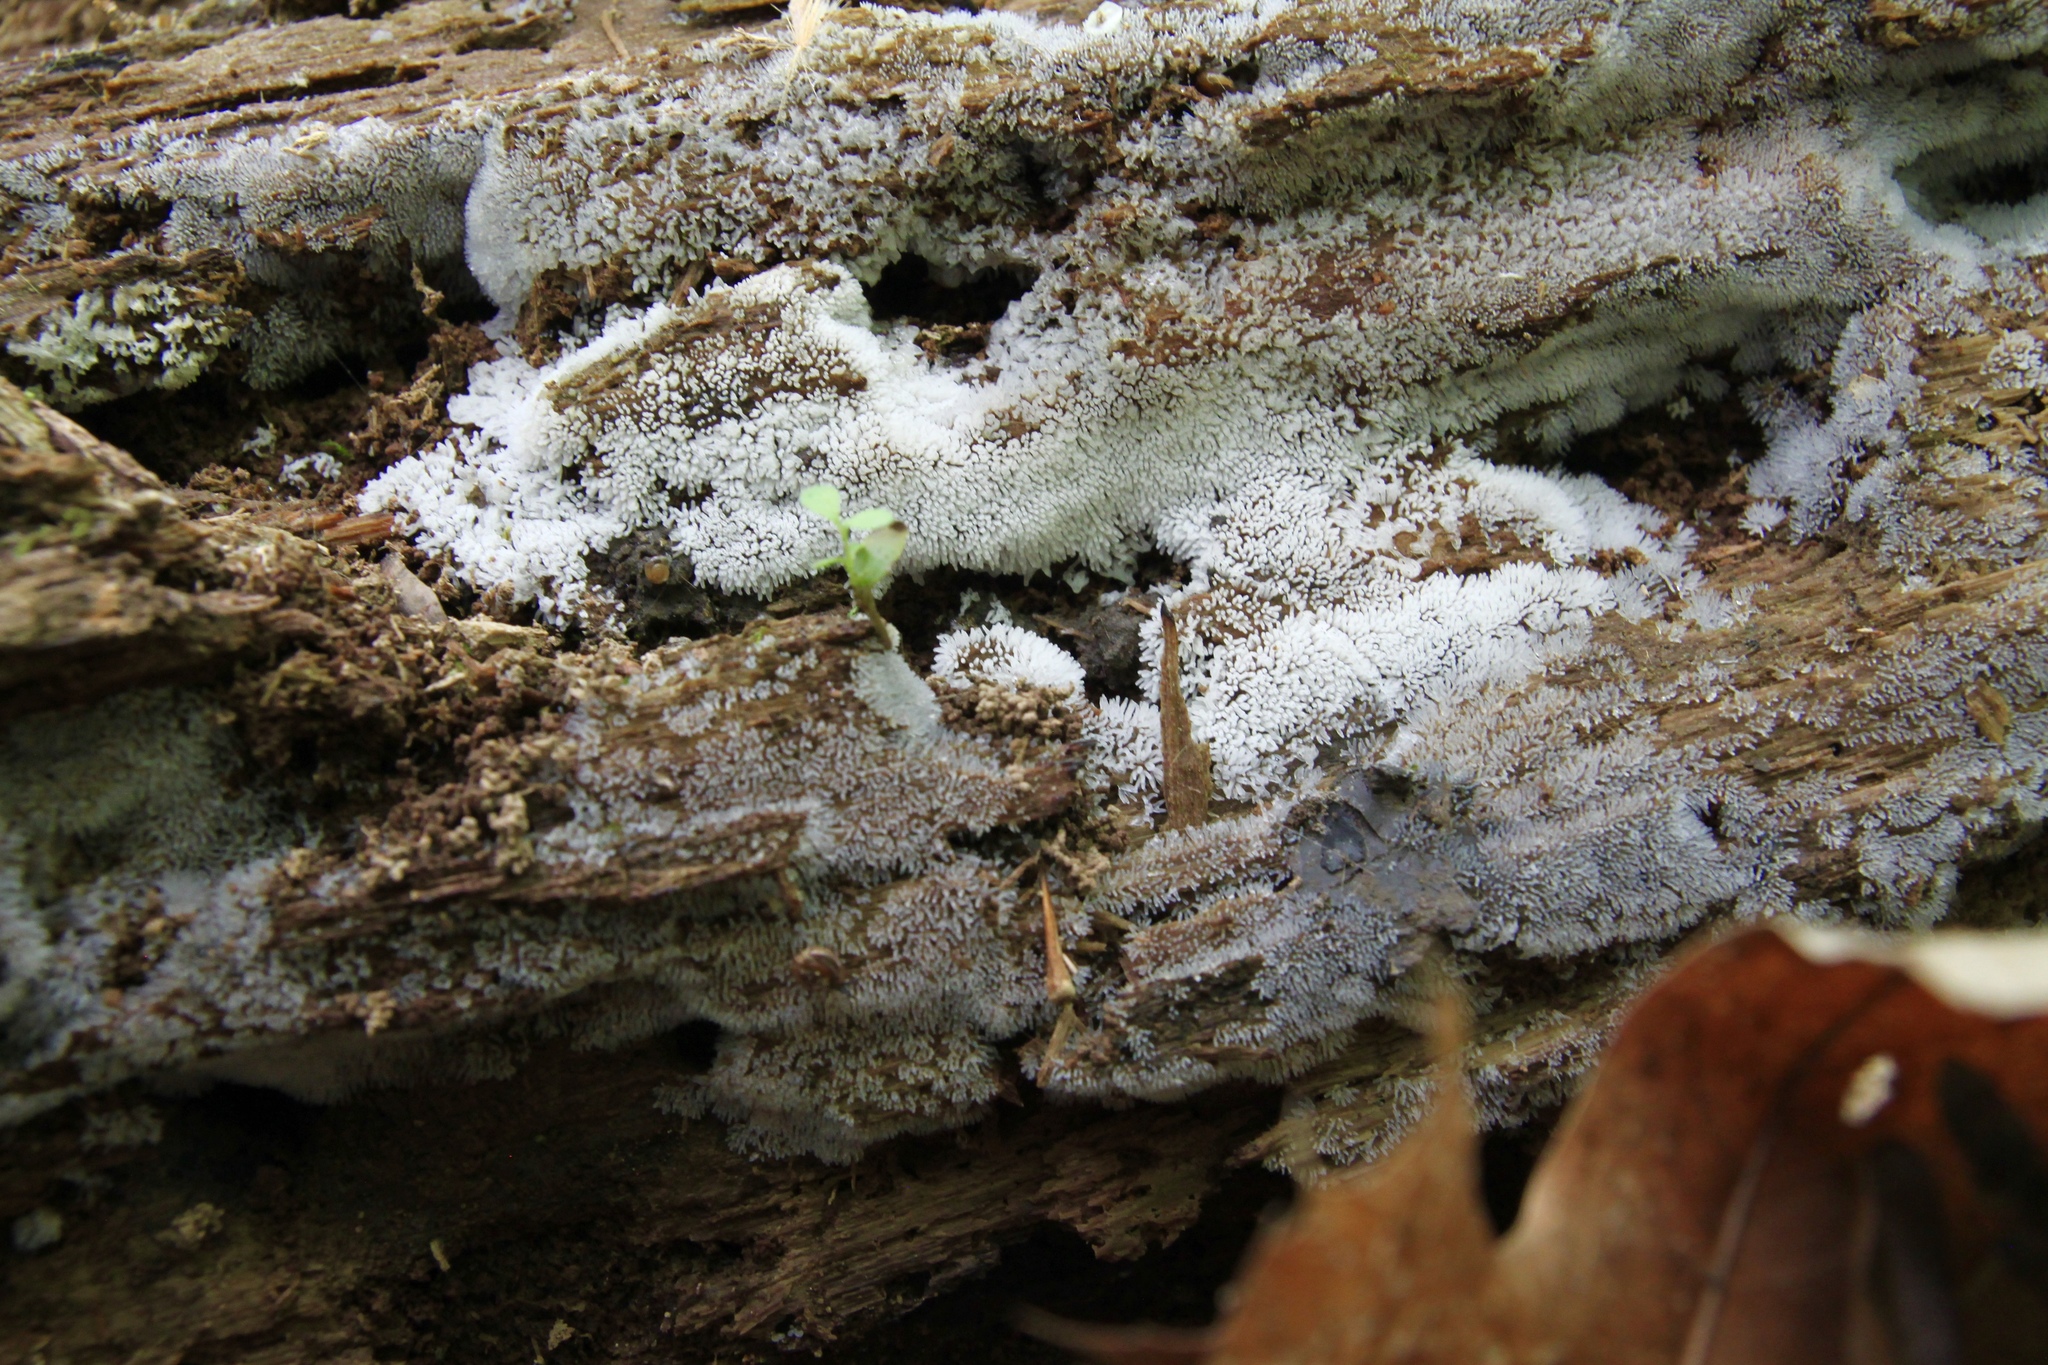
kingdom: Protozoa
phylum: Mycetozoa
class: Protosteliomycetes
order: Ceratiomyxales
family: Ceratiomyxaceae
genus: Ceratiomyxa
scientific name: Ceratiomyxa fruticulosa
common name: Honeycomb coral slime mold
